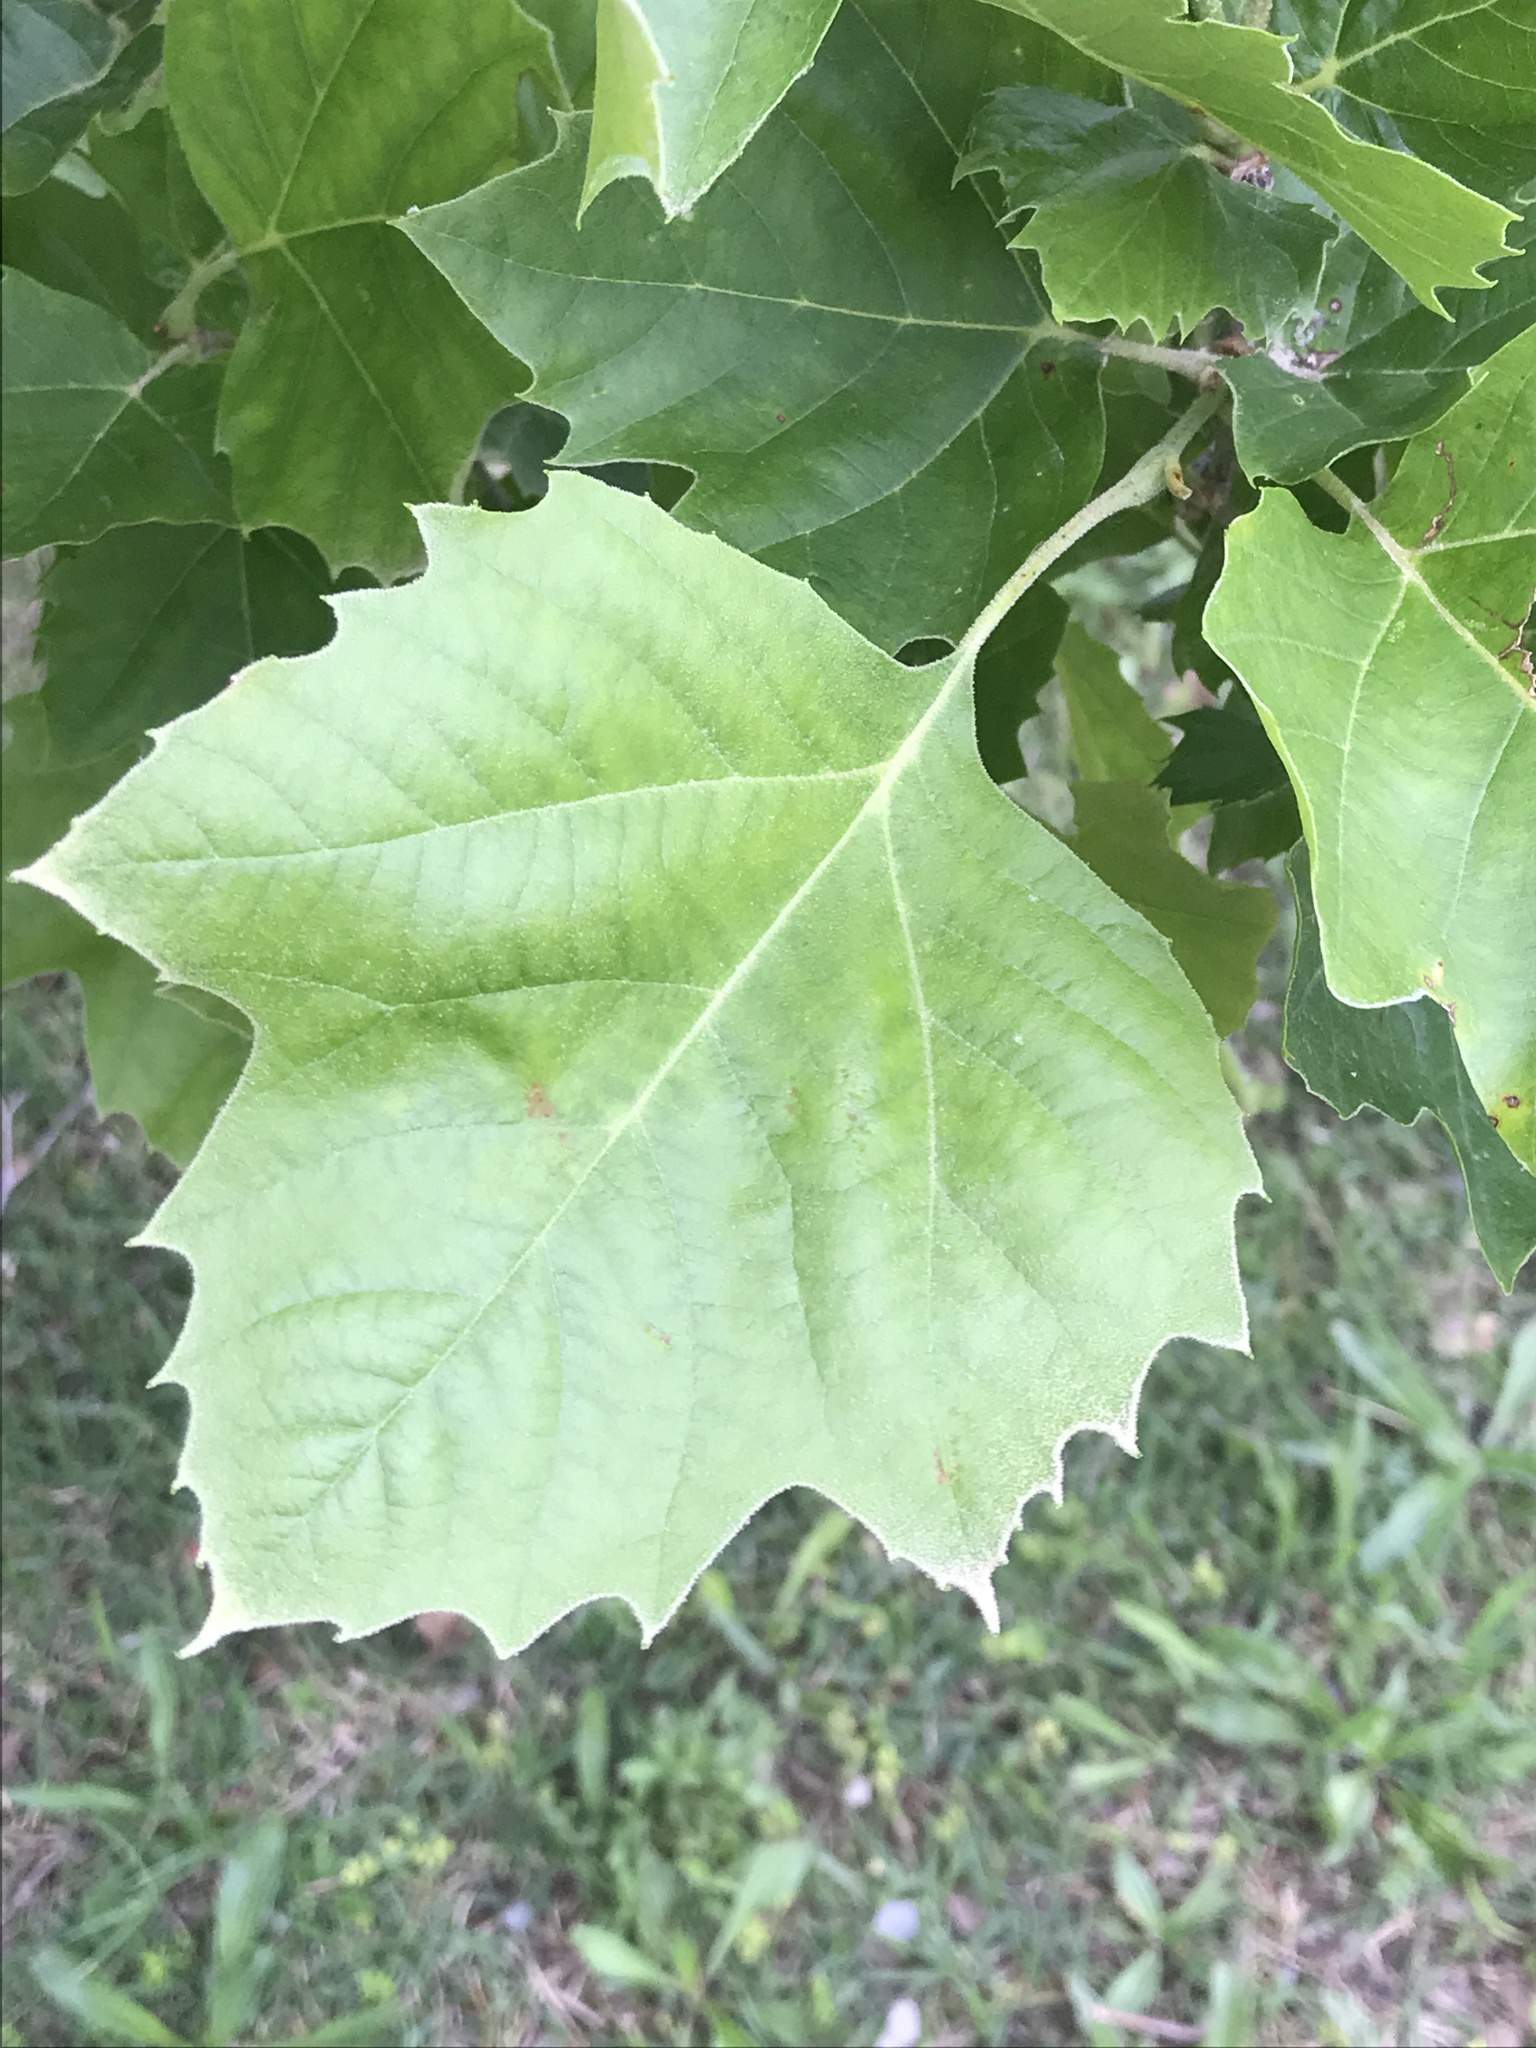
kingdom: Plantae
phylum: Tracheophyta
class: Magnoliopsida
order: Proteales
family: Platanaceae
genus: Platanus
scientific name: Platanus occidentalis
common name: American sycamore
